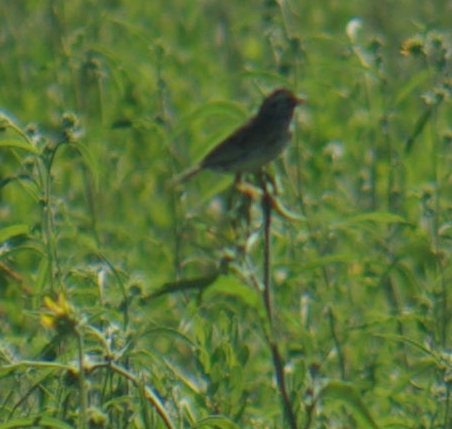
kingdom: Animalia
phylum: Chordata
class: Aves
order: Passeriformes
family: Passerellidae
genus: Passerculus
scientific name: Passerculus sandwichensis
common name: Savannah sparrow
